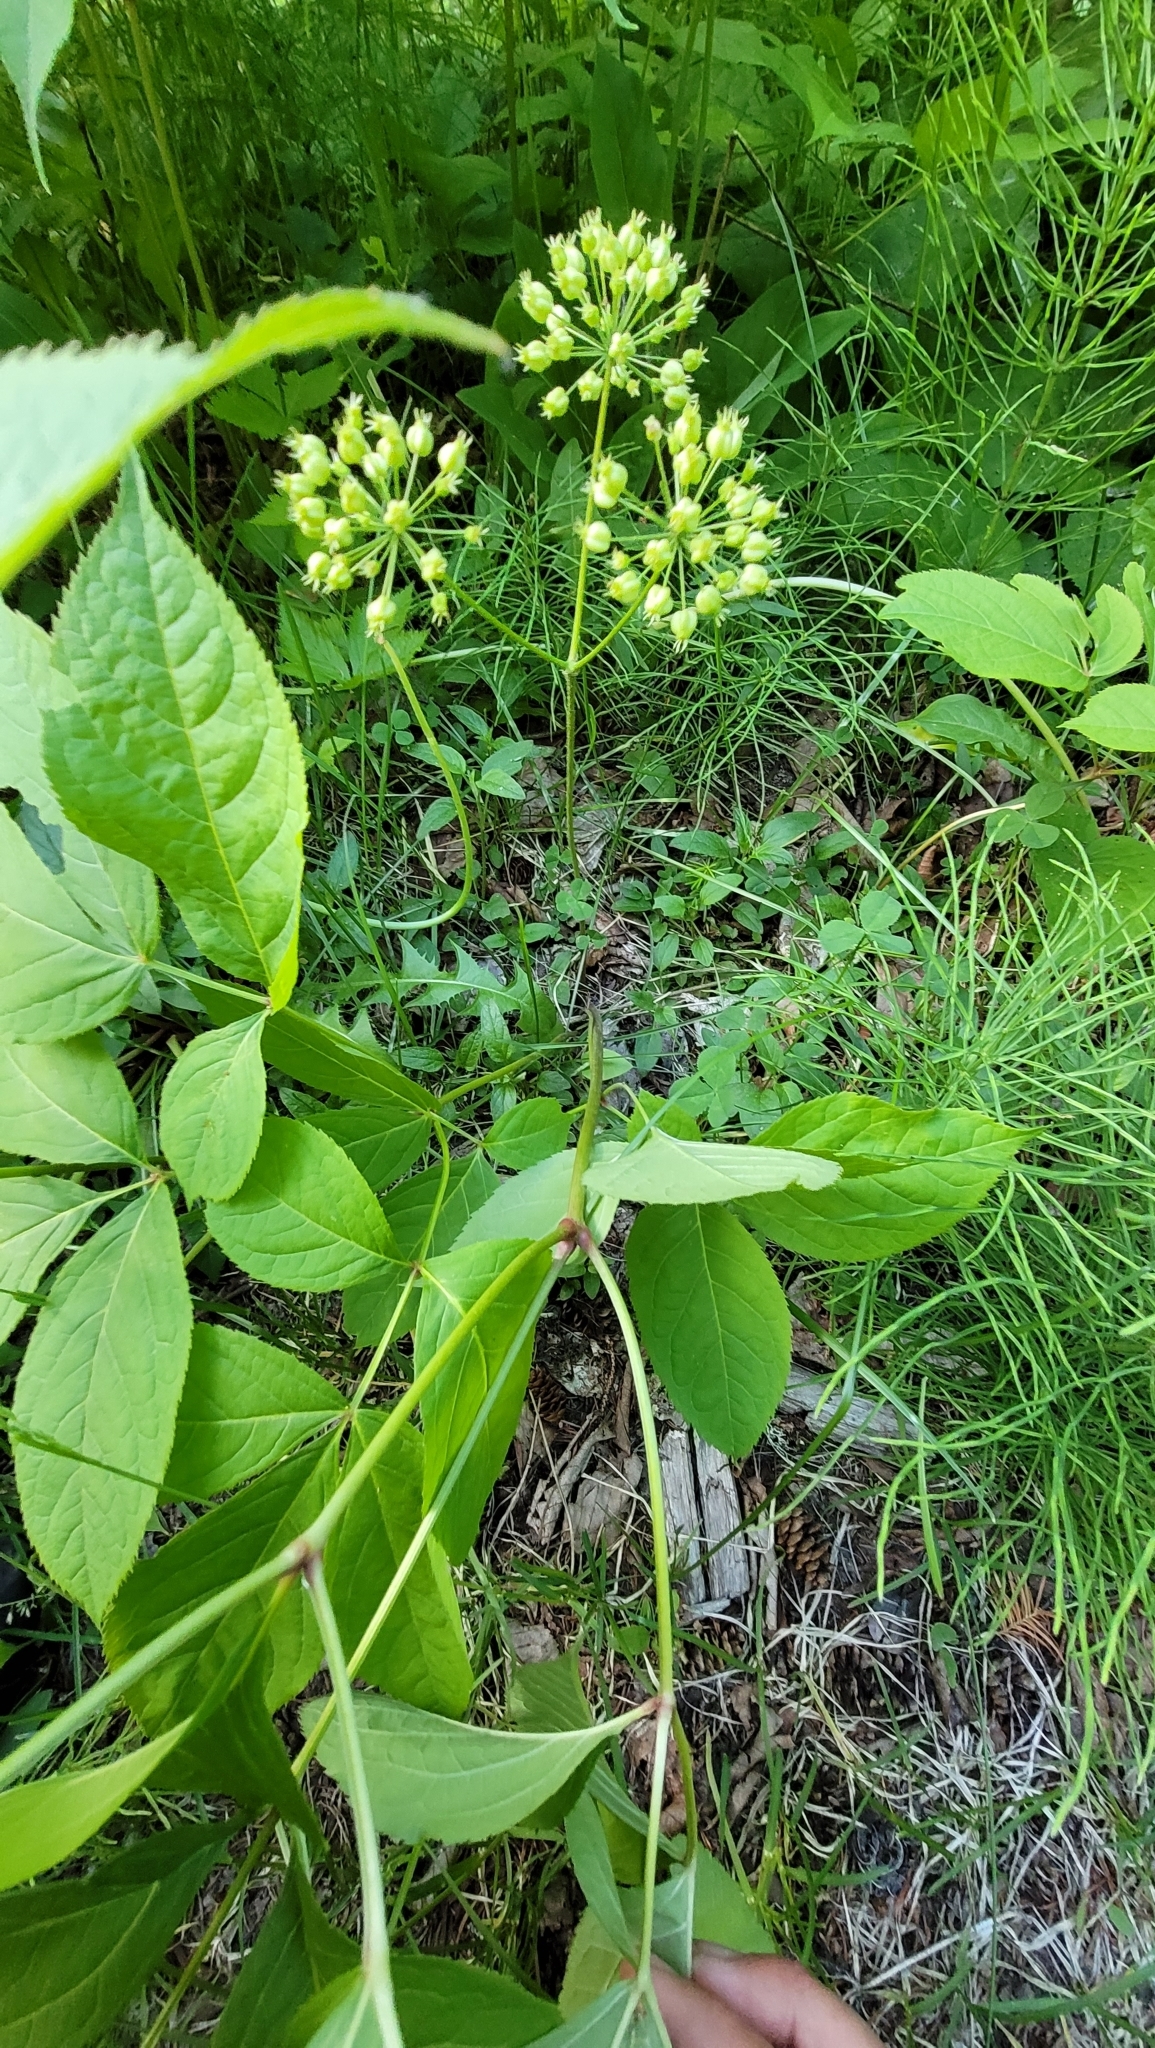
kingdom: Plantae
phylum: Tracheophyta
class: Magnoliopsida
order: Apiales
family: Araliaceae
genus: Aralia
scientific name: Aralia nudicaulis
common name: Wild sarsaparilla
